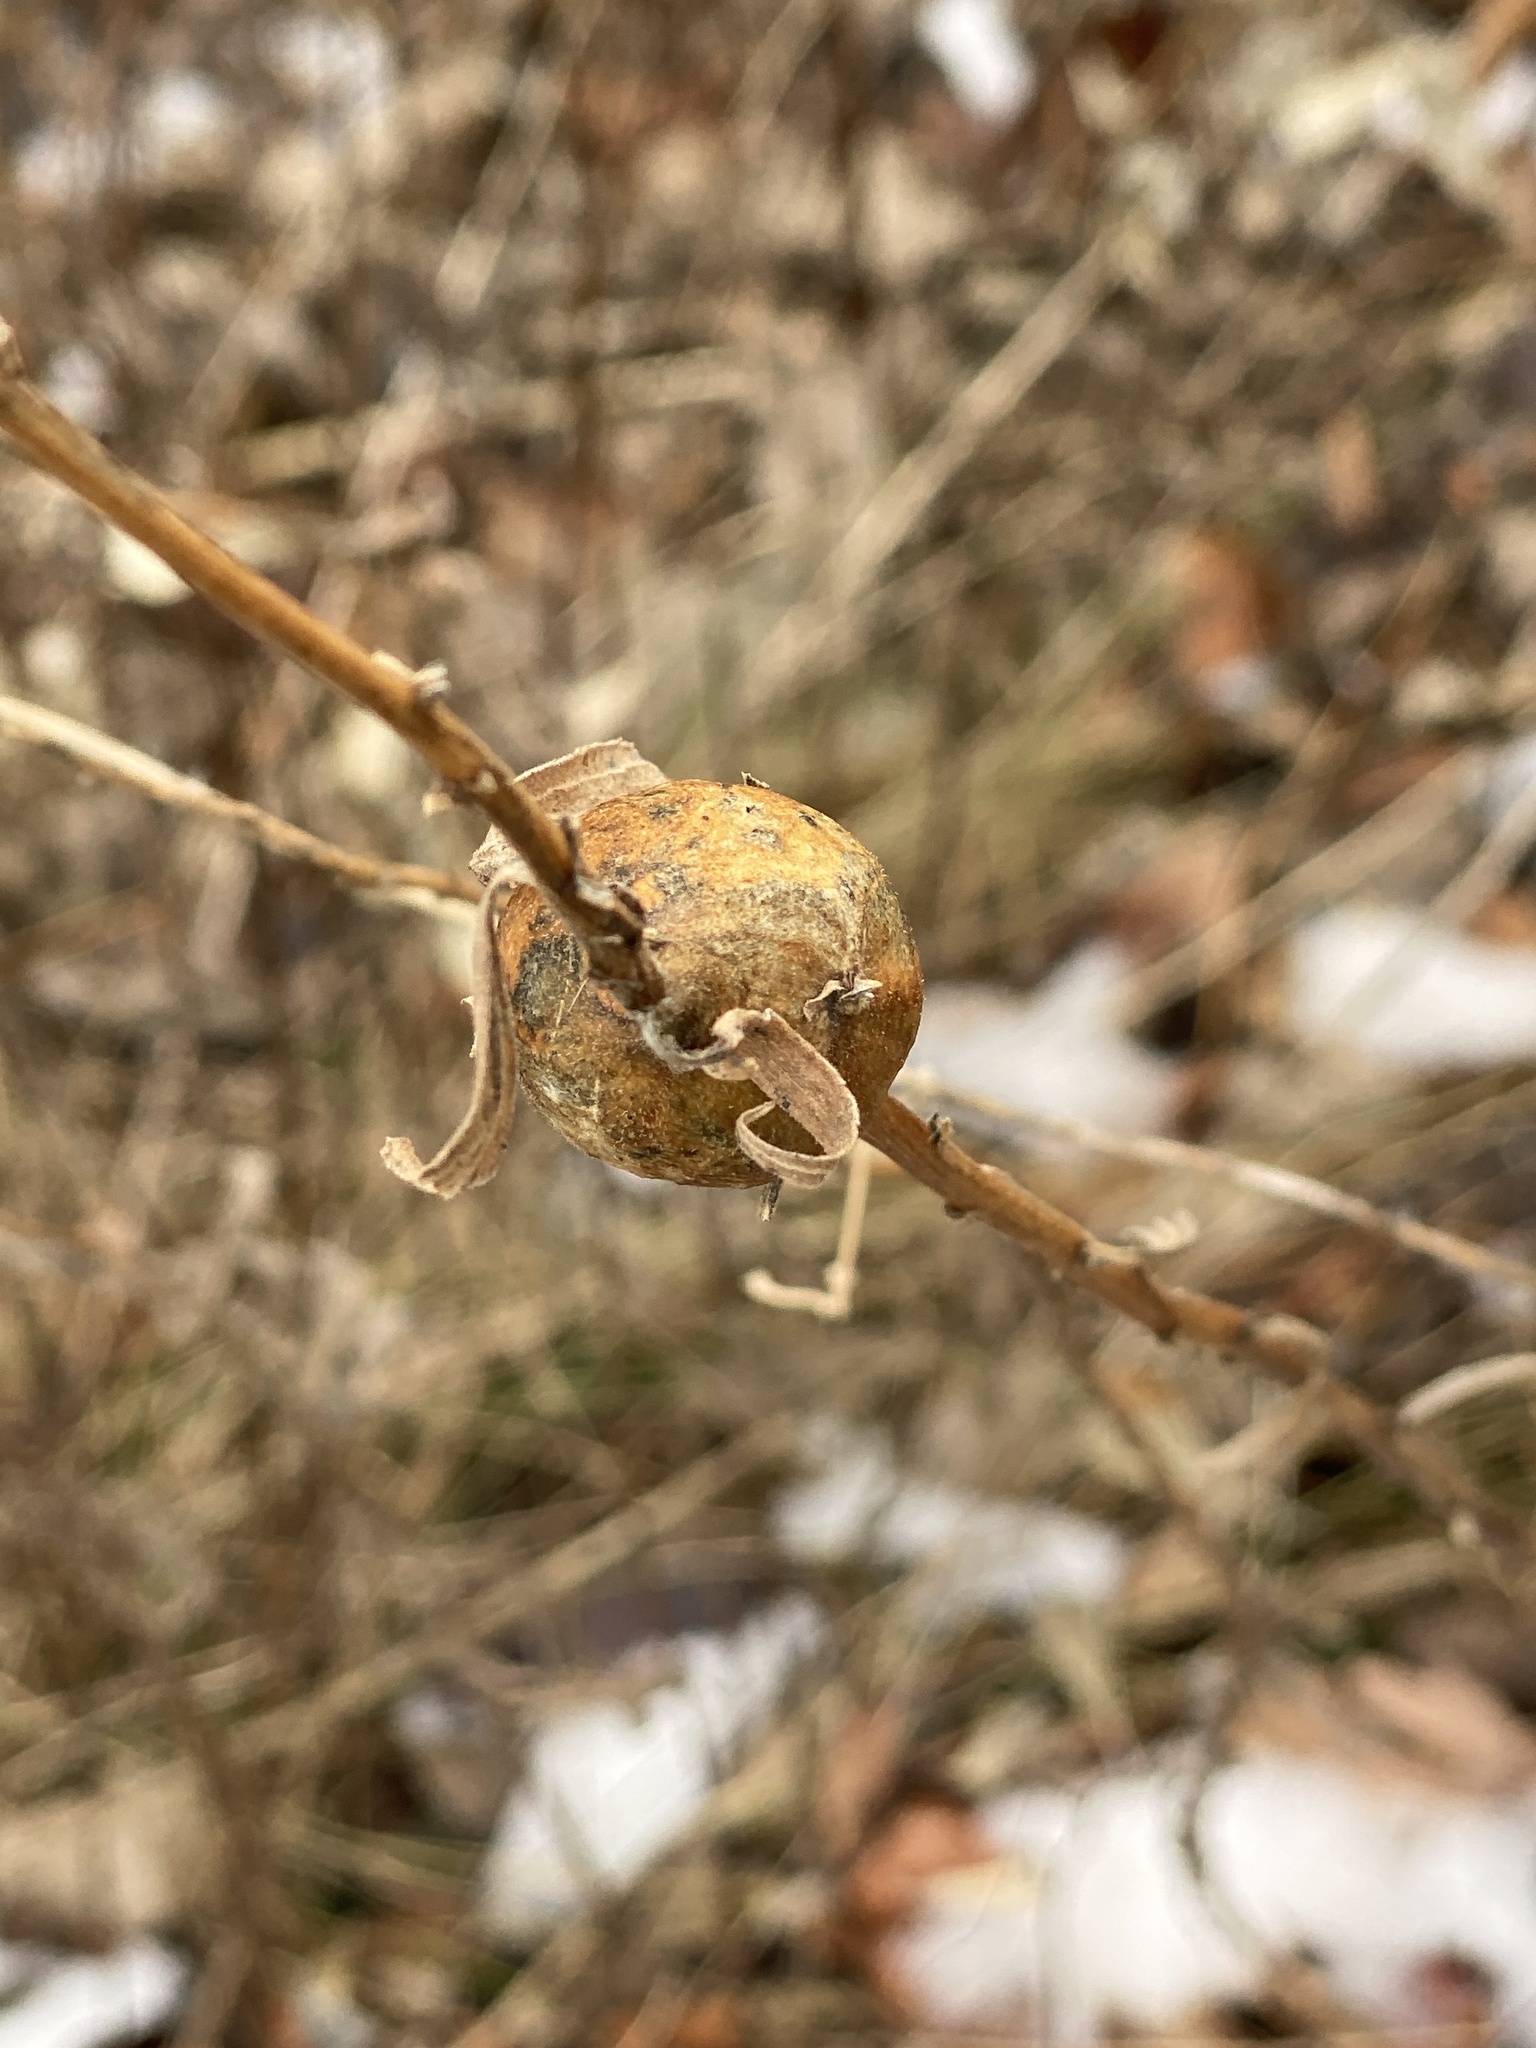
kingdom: Animalia
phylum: Arthropoda
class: Insecta
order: Diptera
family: Tephritidae
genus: Eurosta
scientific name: Eurosta solidaginis
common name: Goldenrod gall fly
